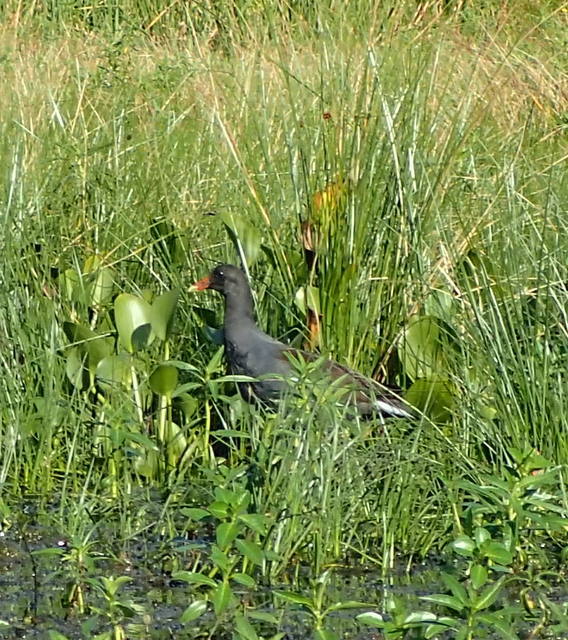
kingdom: Animalia
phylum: Chordata
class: Aves
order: Gruiformes
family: Rallidae
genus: Gallinula
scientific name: Gallinula chloropus
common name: Common moorhen
